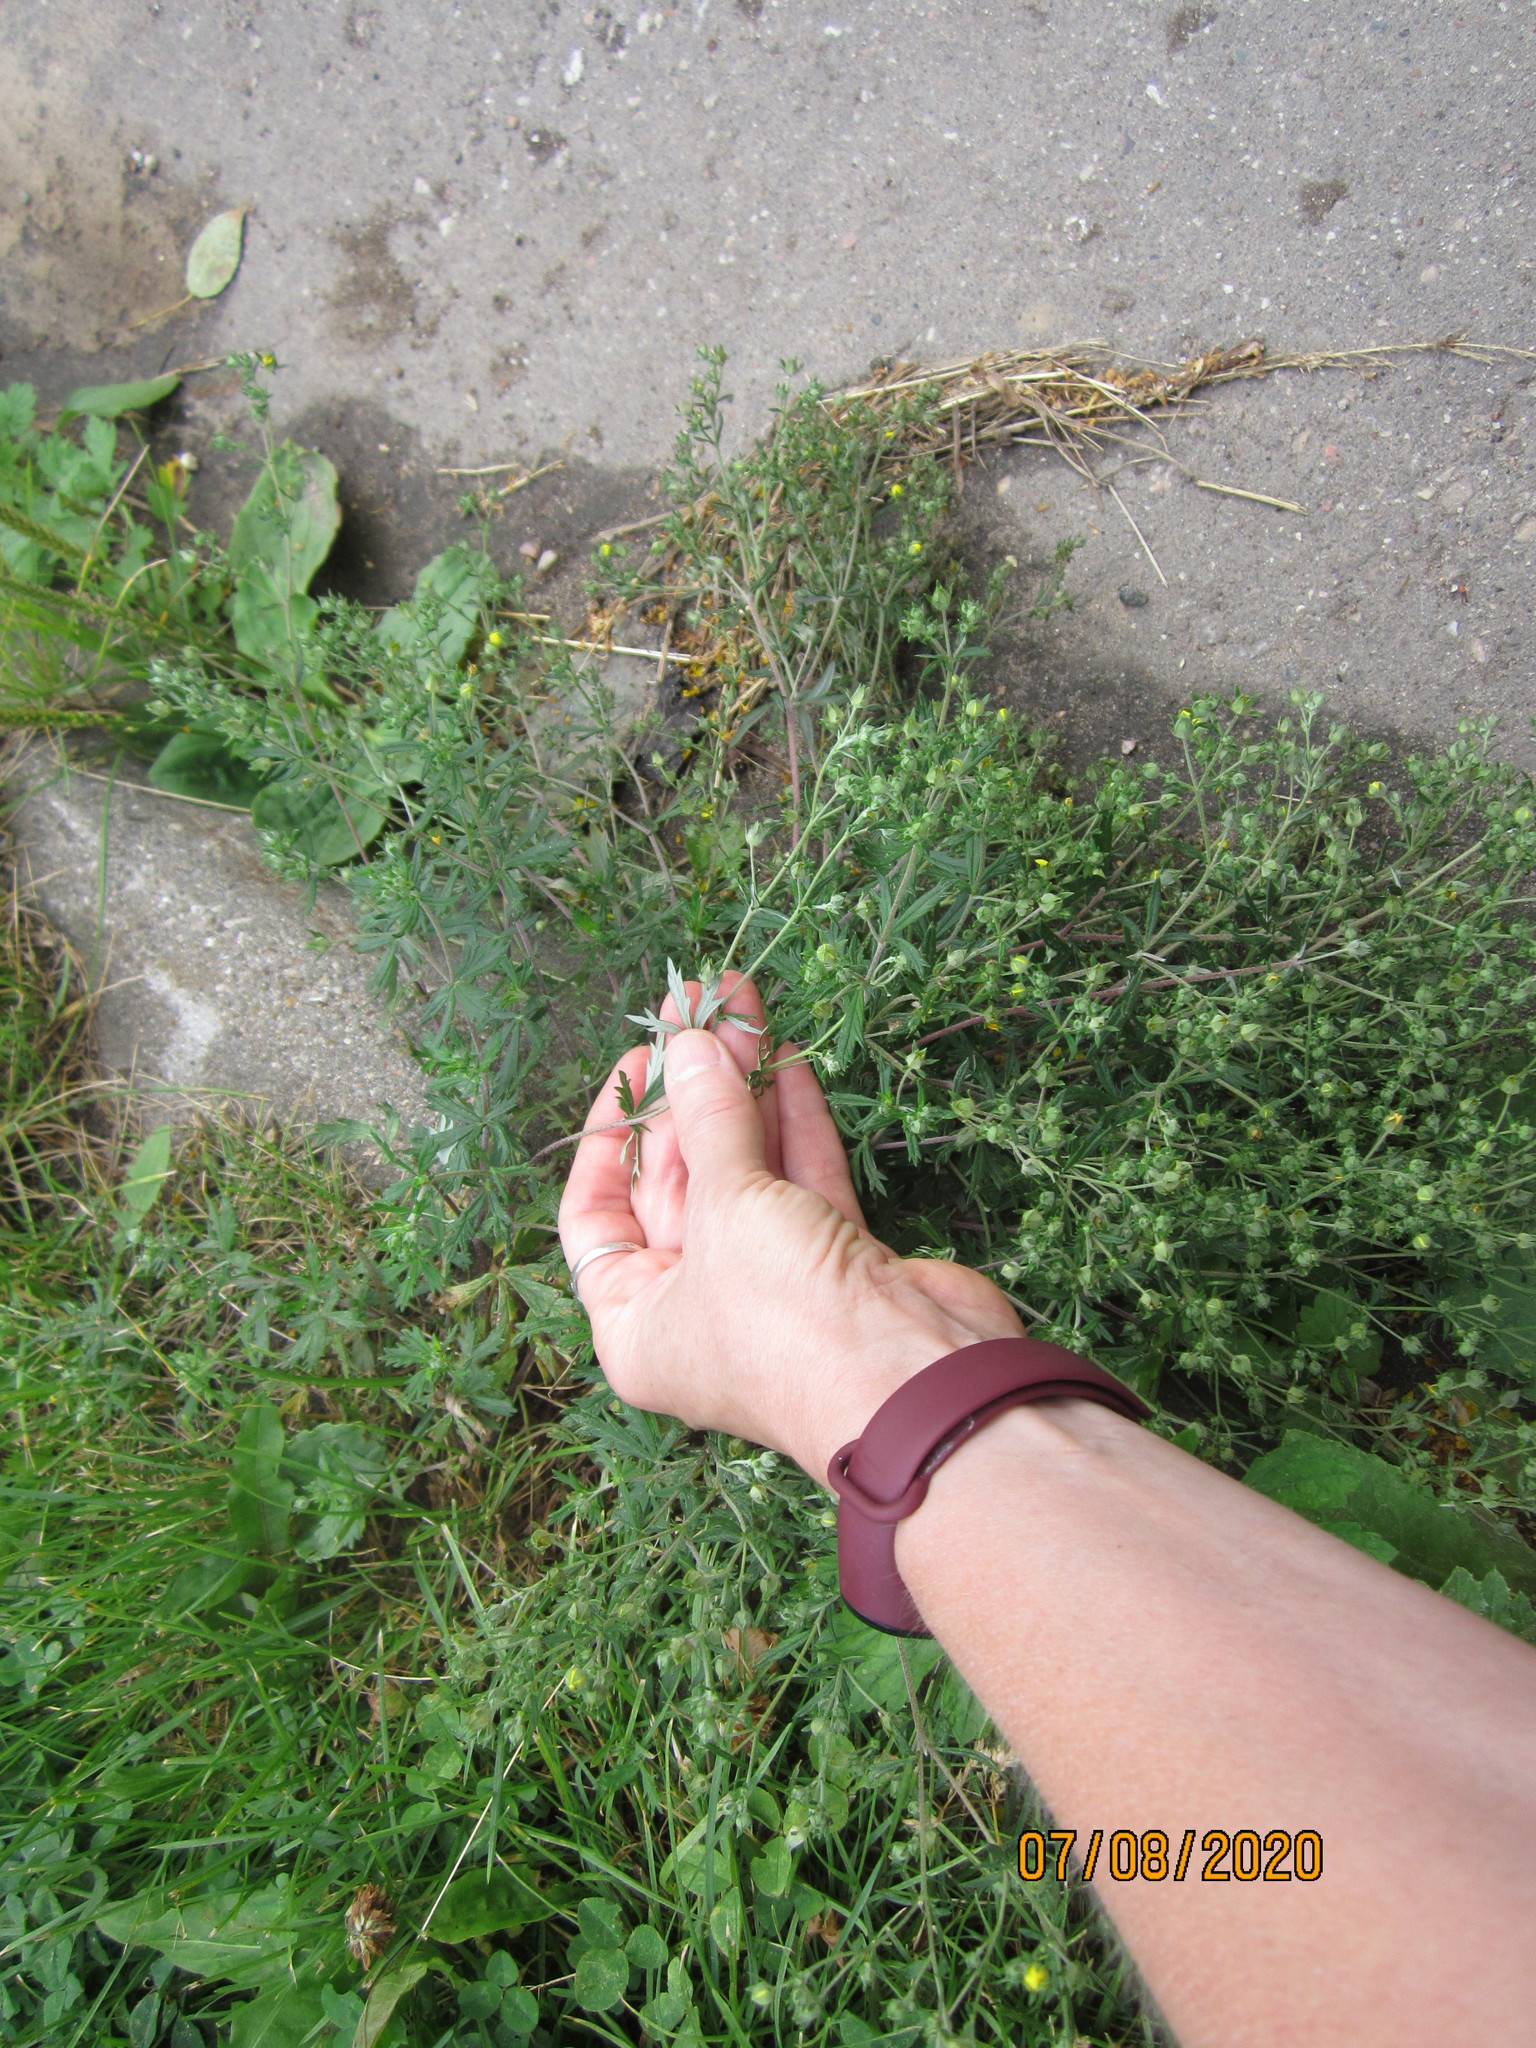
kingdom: Plantae
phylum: Tracheophyta
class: Magnoliopsida
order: Rosales
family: Rosaceae
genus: Potentilla
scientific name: Potentilla argentea
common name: Hoary cinquefoil
